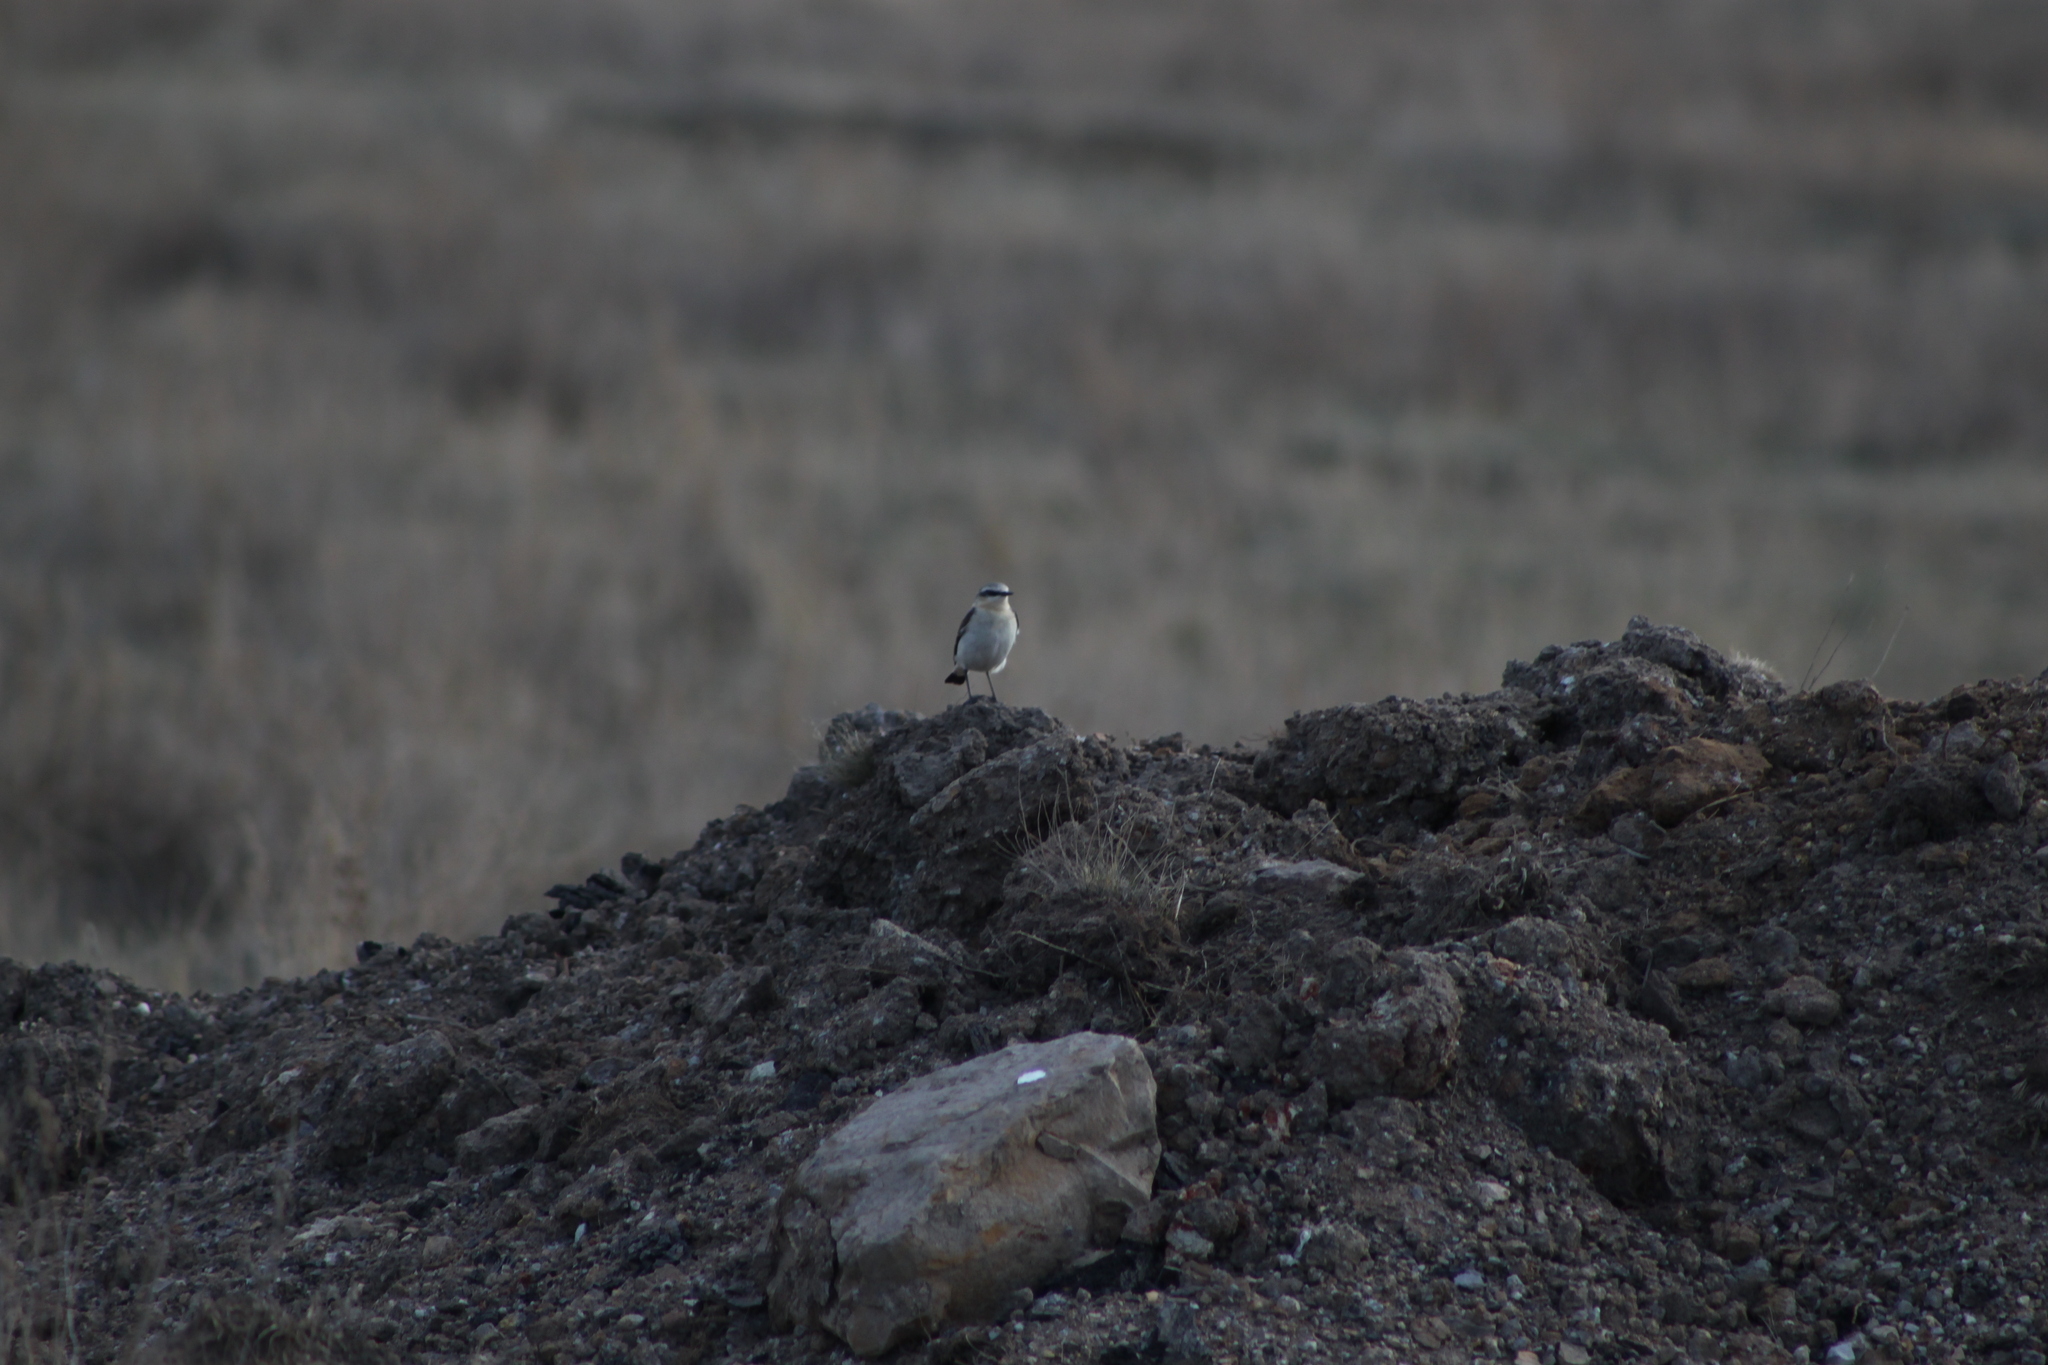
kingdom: Animalia
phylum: Chordata
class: Aves
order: Passeriformes
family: Muscicapidae
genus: Oenanthe
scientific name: Oenanthe oenanthe
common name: Northern wheatear
